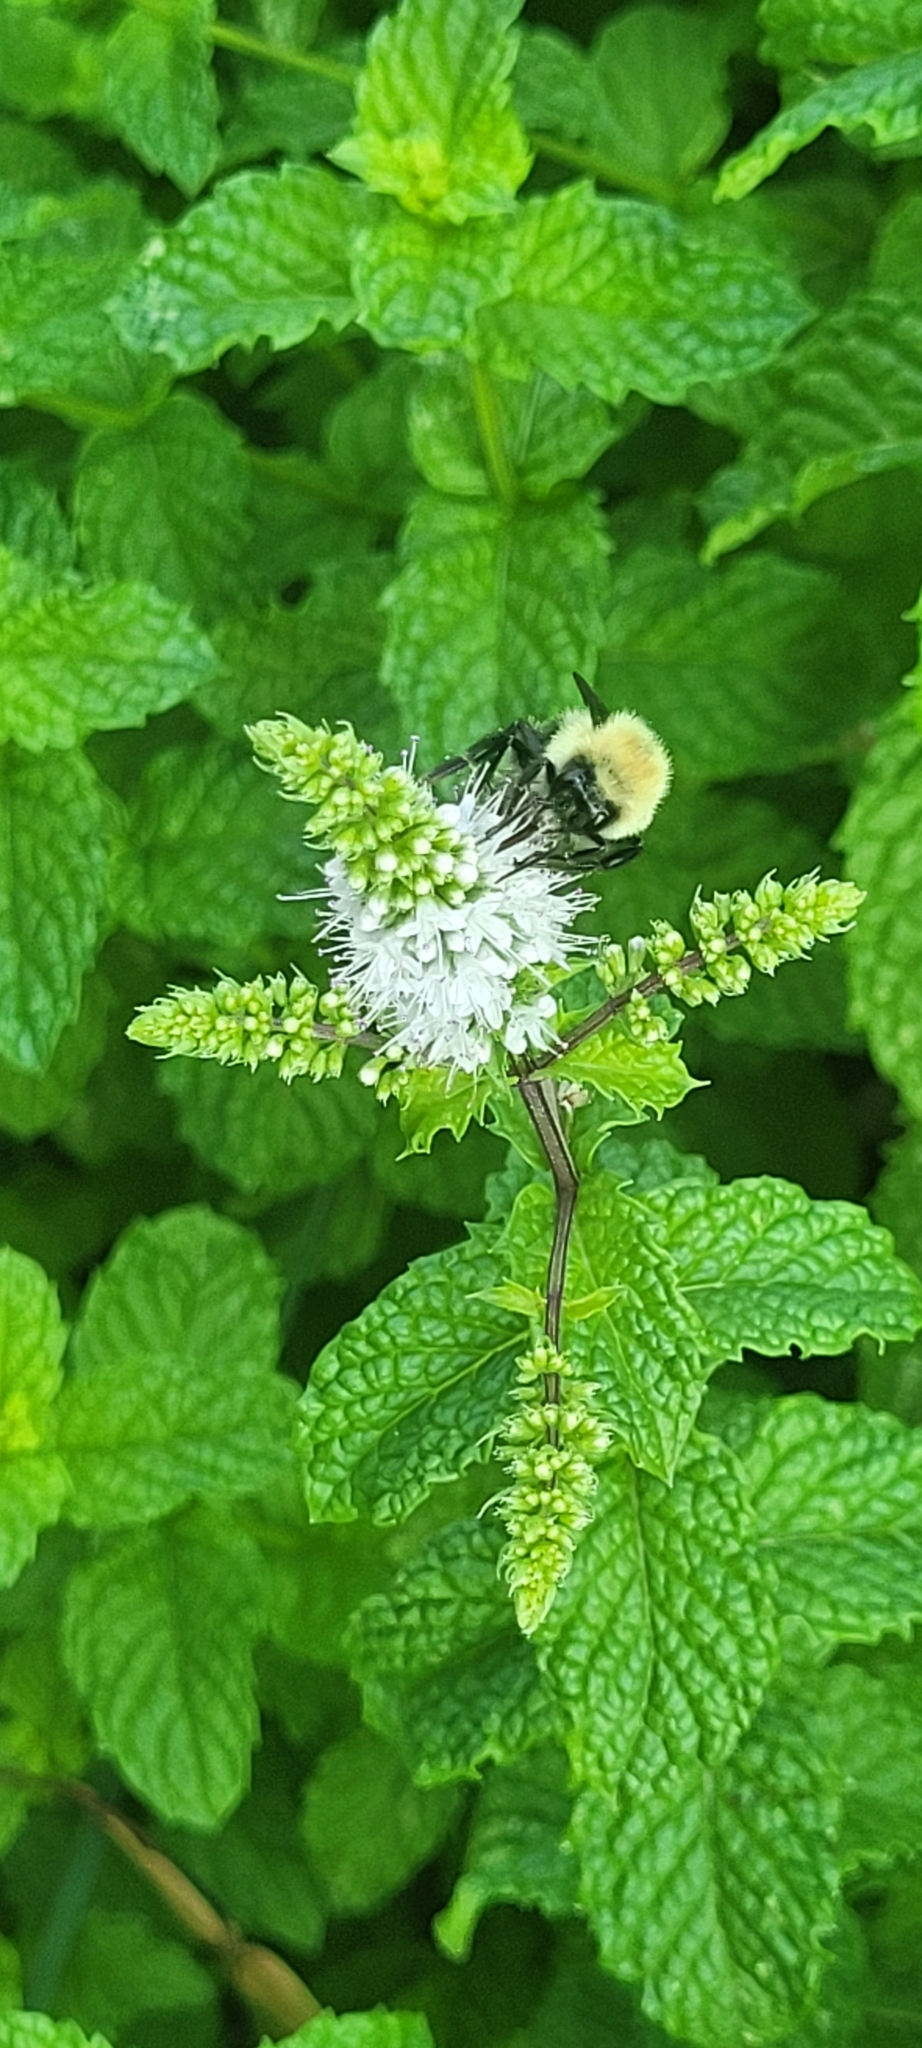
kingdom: Animalia
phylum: Arthropoda
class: Insecta
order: Hymenoptera
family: Apidae
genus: Bombus
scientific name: Bombus bimaculatus
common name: Two-spotted bumble bee
